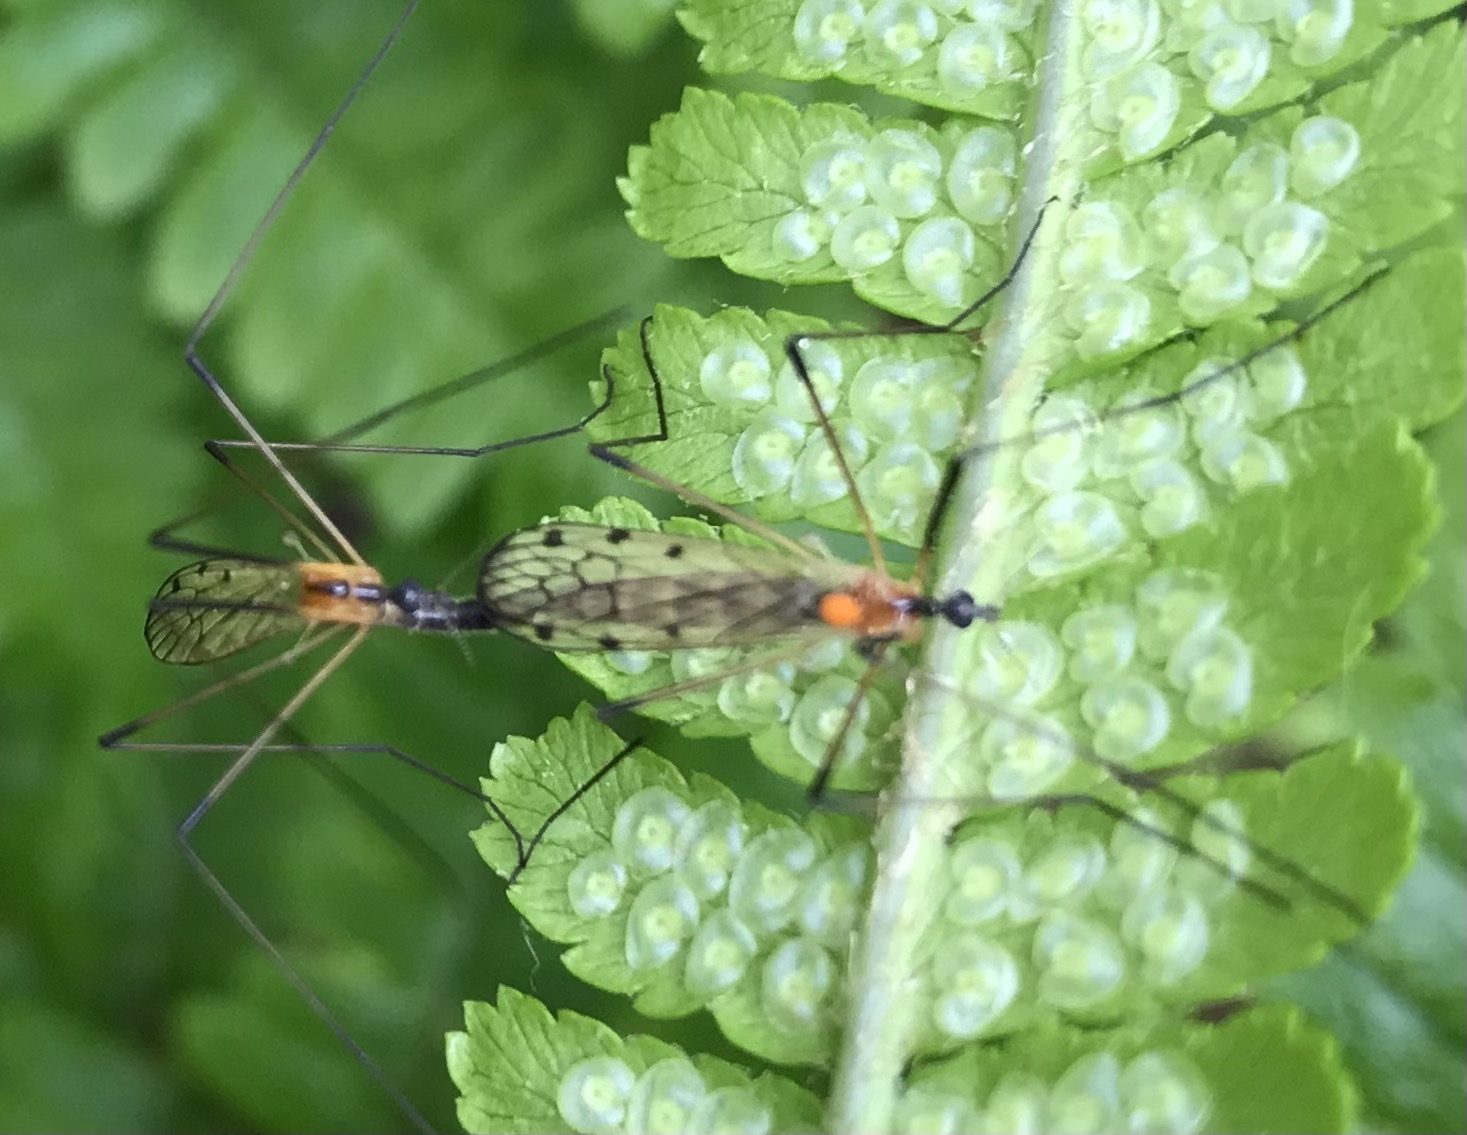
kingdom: Animalia
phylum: Arthropoda
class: Insecta
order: Diptera
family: Limoniidae
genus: Limonia
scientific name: Limonia nigropunctata
